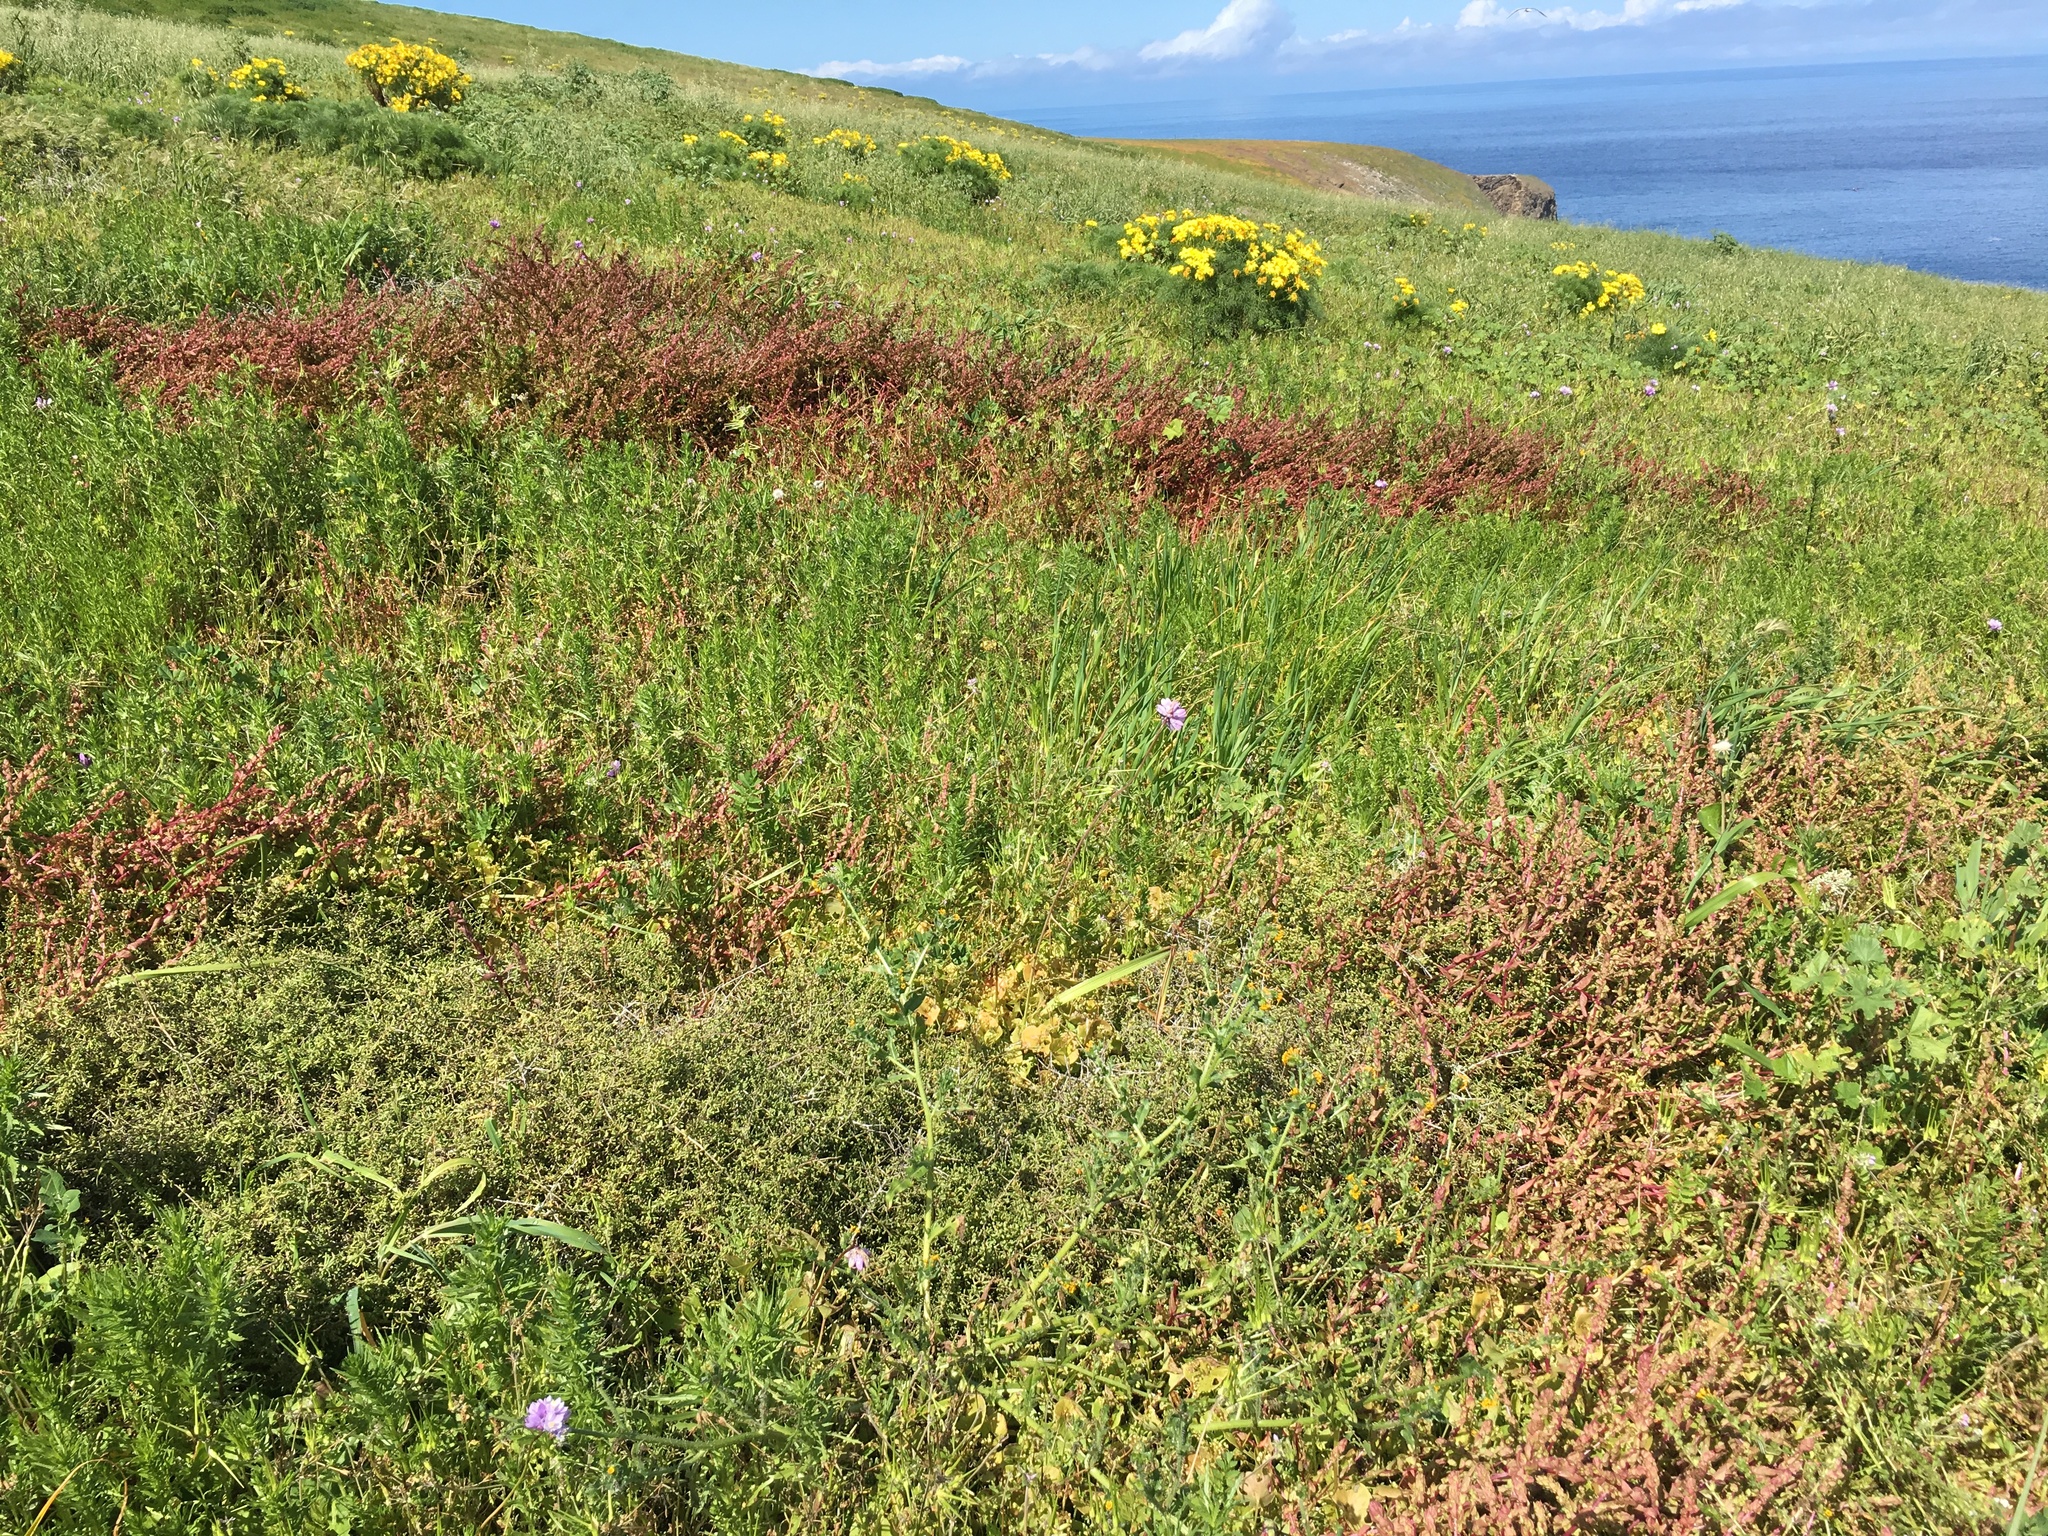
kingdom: Plantae
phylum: Tracheophyta
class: Magnoliopsida
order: Caryophyllales
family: Amaranthaceae
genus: Aphanisma
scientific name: Aphanisma blitoides
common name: Aphanisma
